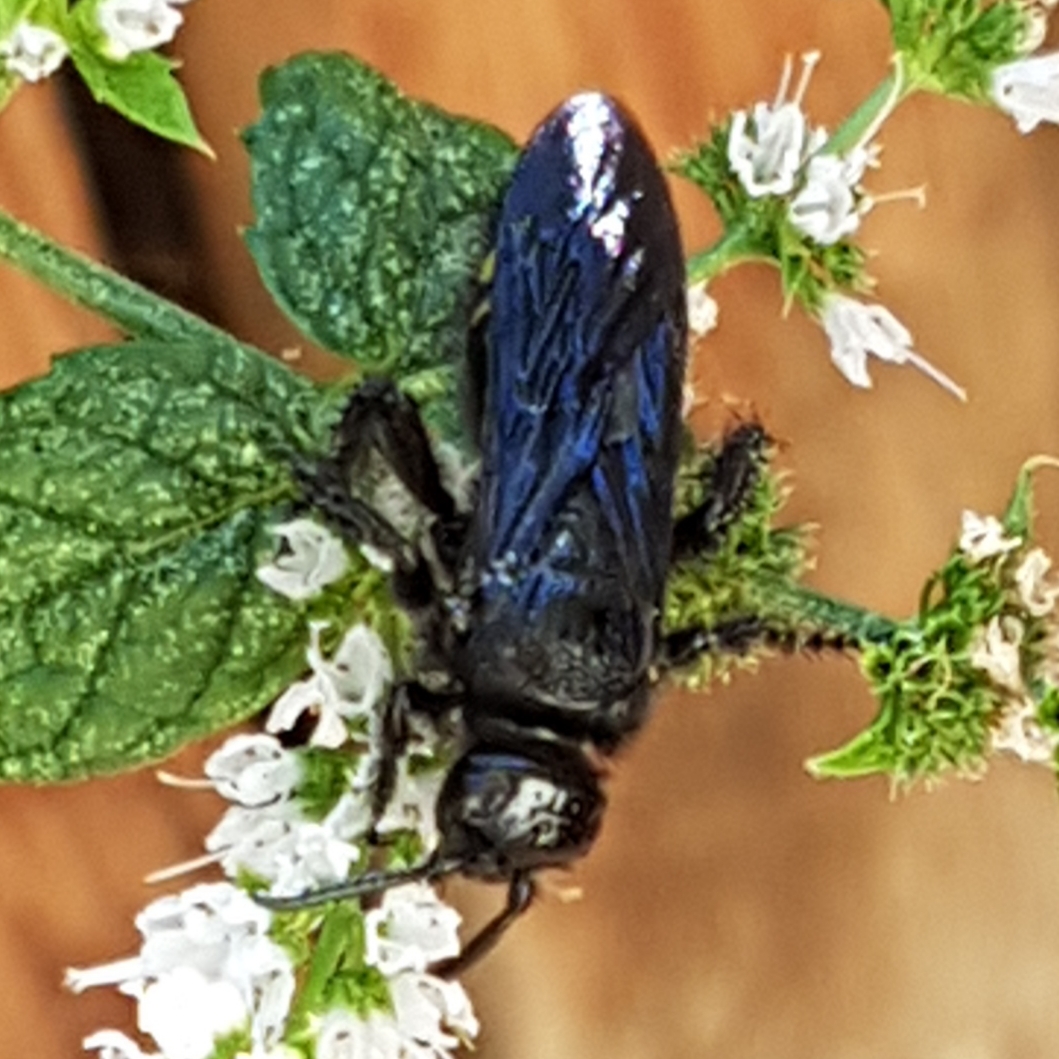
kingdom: Animalia
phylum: Arthropoda
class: Insecta
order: Hymenoptera
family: Scoliidae
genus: Scolia
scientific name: Scolia hirta
